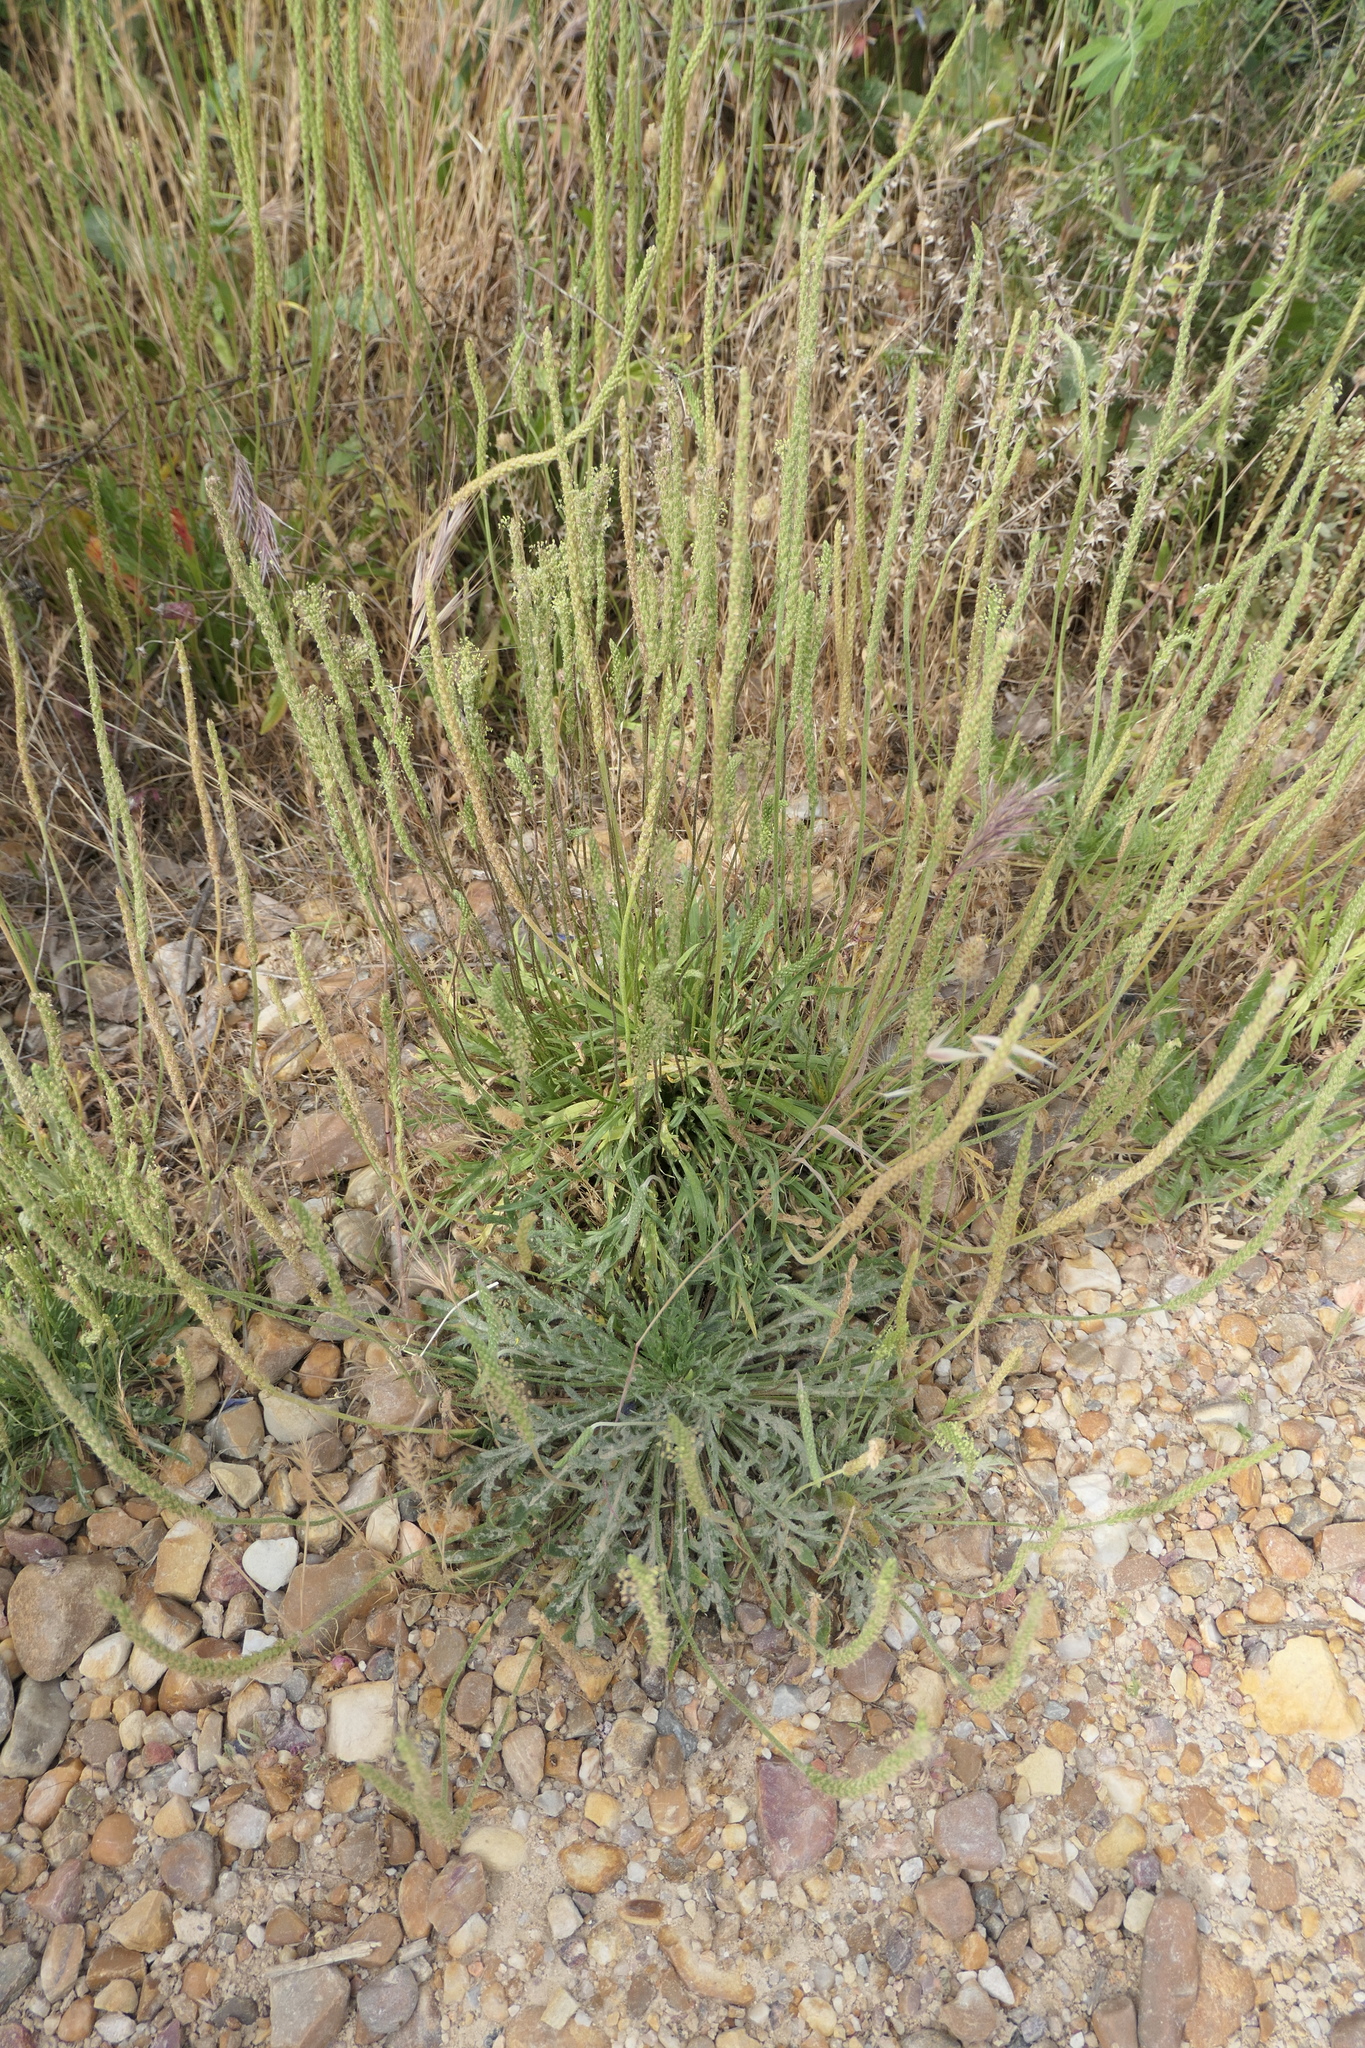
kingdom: Plantae
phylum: Tracheophyta
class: Magnoliopsida
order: Lamiales
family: Plantaginaceae
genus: Plantago
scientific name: Plantago coronopus
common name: Buck's-horn plantain
